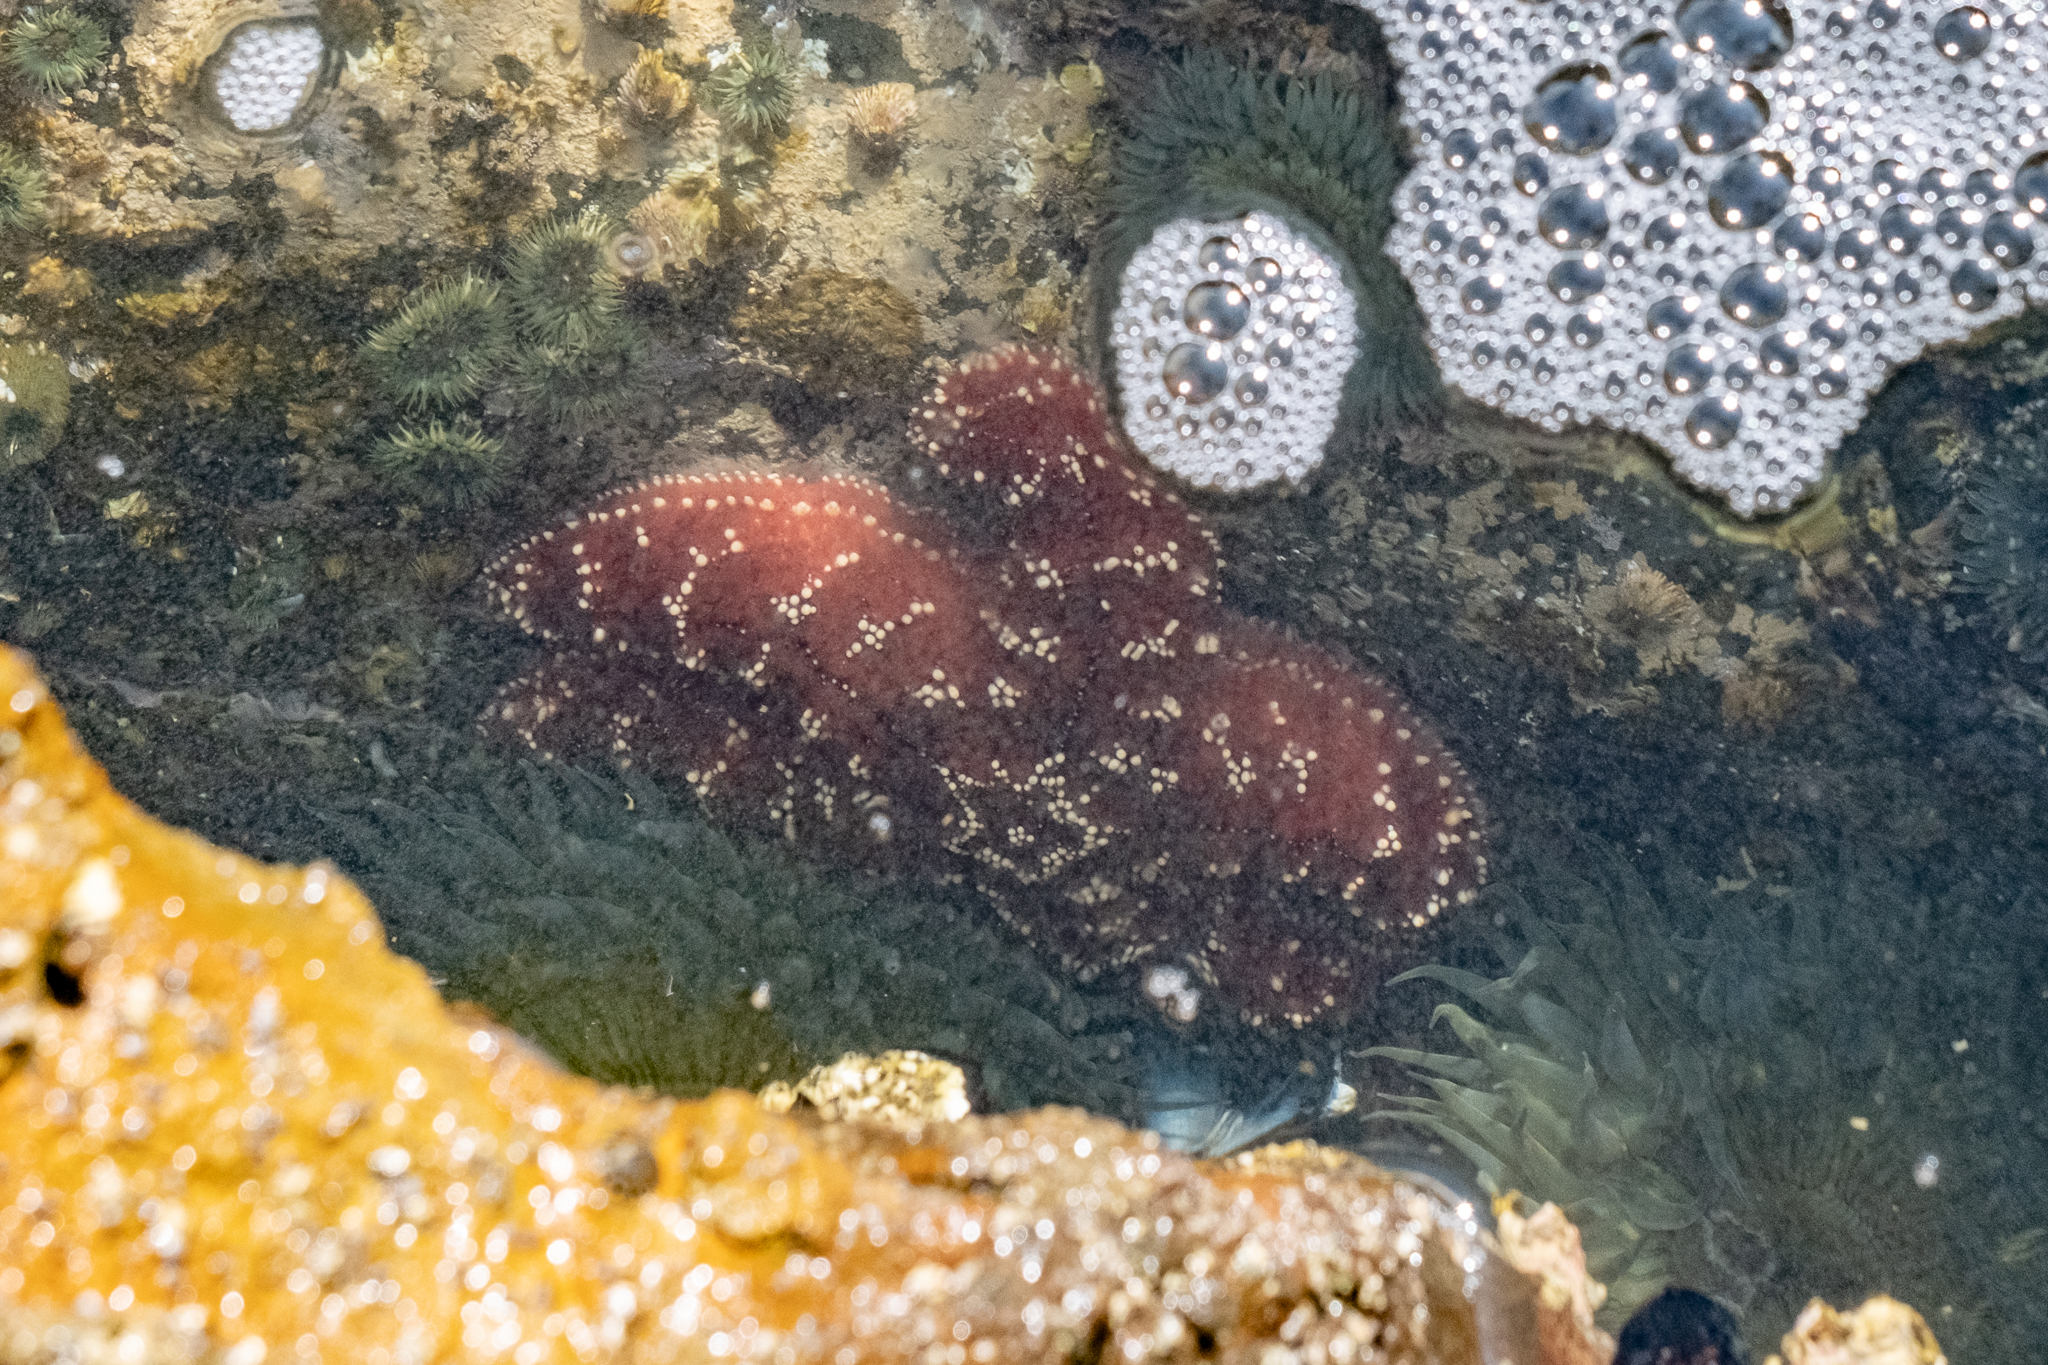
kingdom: Animalia
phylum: Echinodermata
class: Asteroidea
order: Forcipulatida
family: Asteriidae
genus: Pisaster
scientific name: Pisaster ochraceus
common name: Ochre stars
